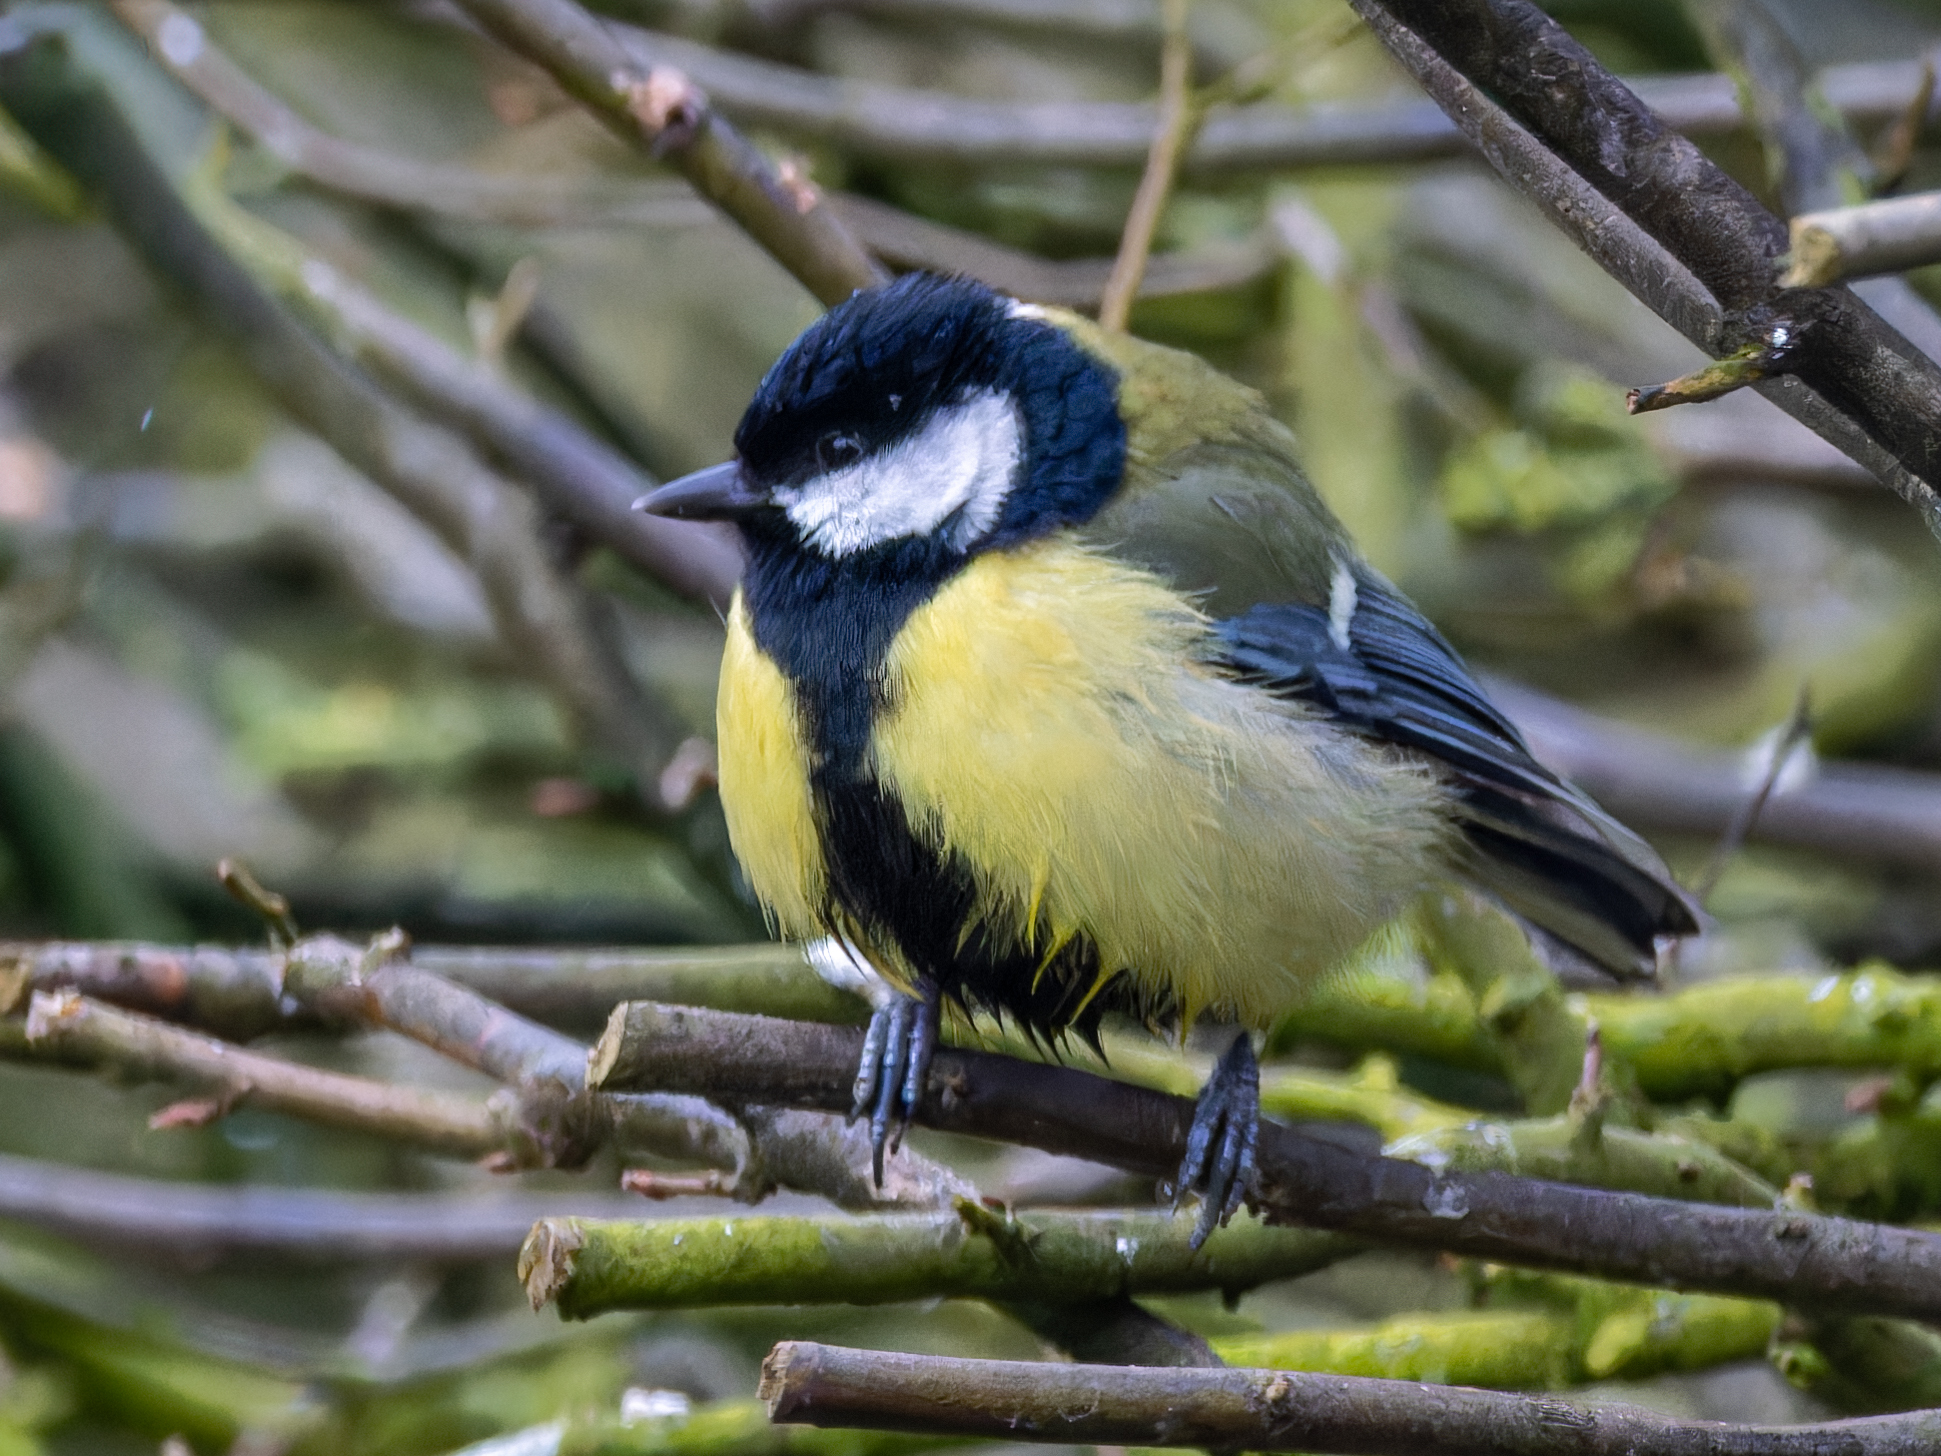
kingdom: Animalia
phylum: Chordata
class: Aves
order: Passeriformes
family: Paridae
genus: Parus
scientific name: Parus major
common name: Great tit
